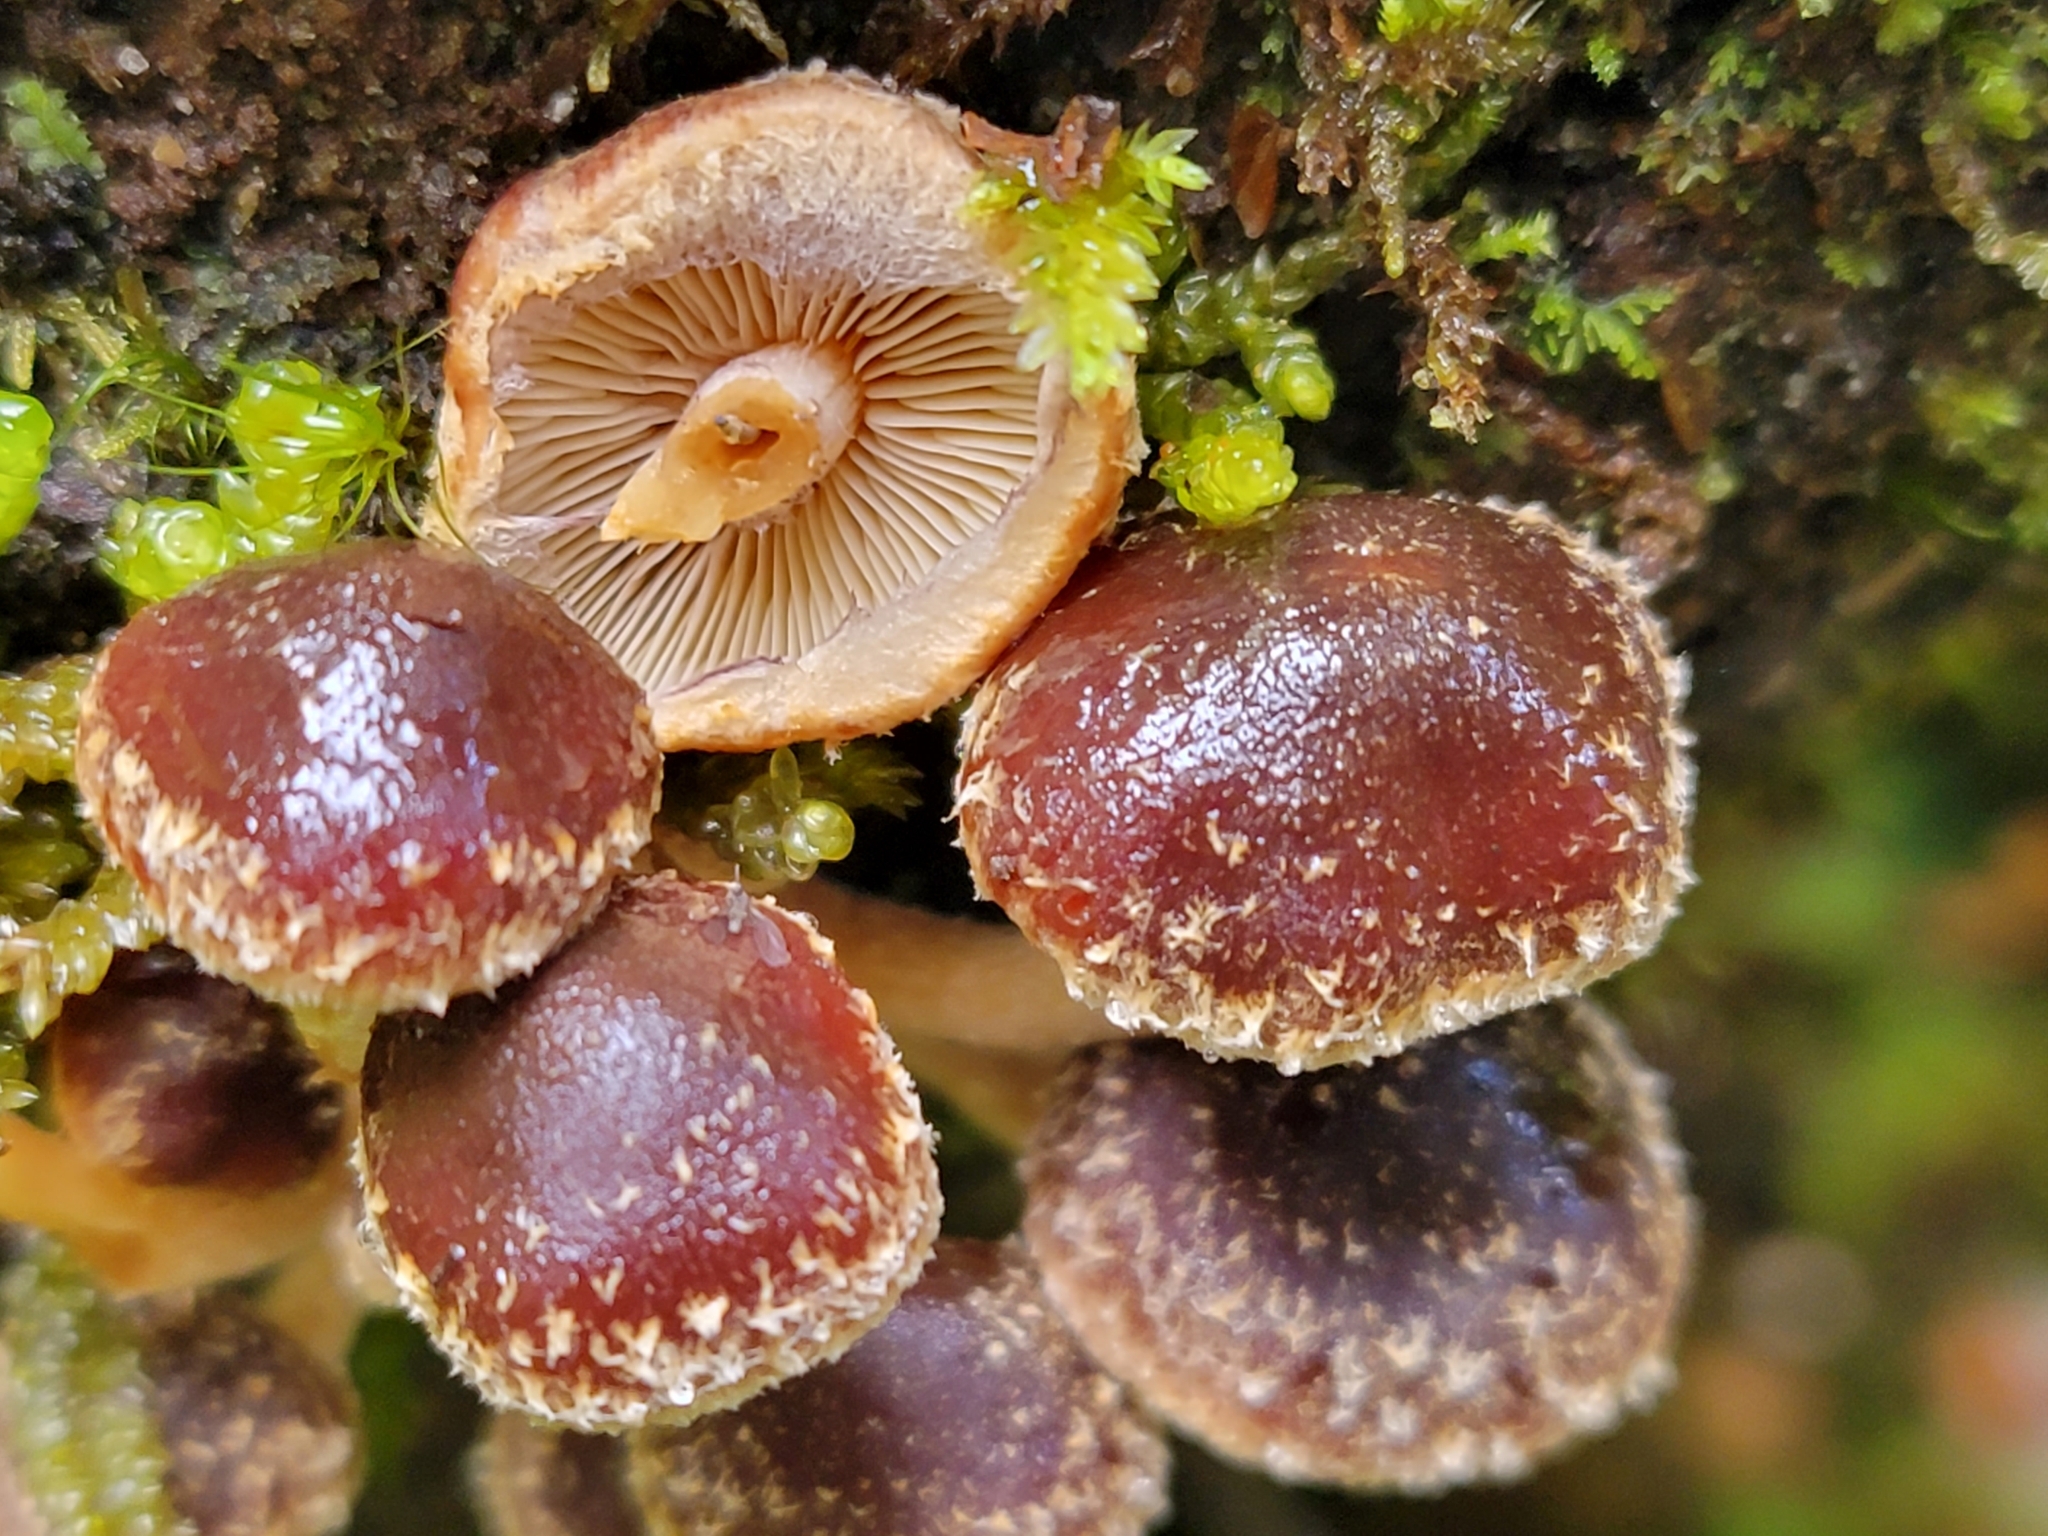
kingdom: Fungi
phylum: Basidiomycota
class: Agaricomycetes
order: Agaricales
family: Strophariaceae
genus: Hypholoma
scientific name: Hypholoma brunneum
